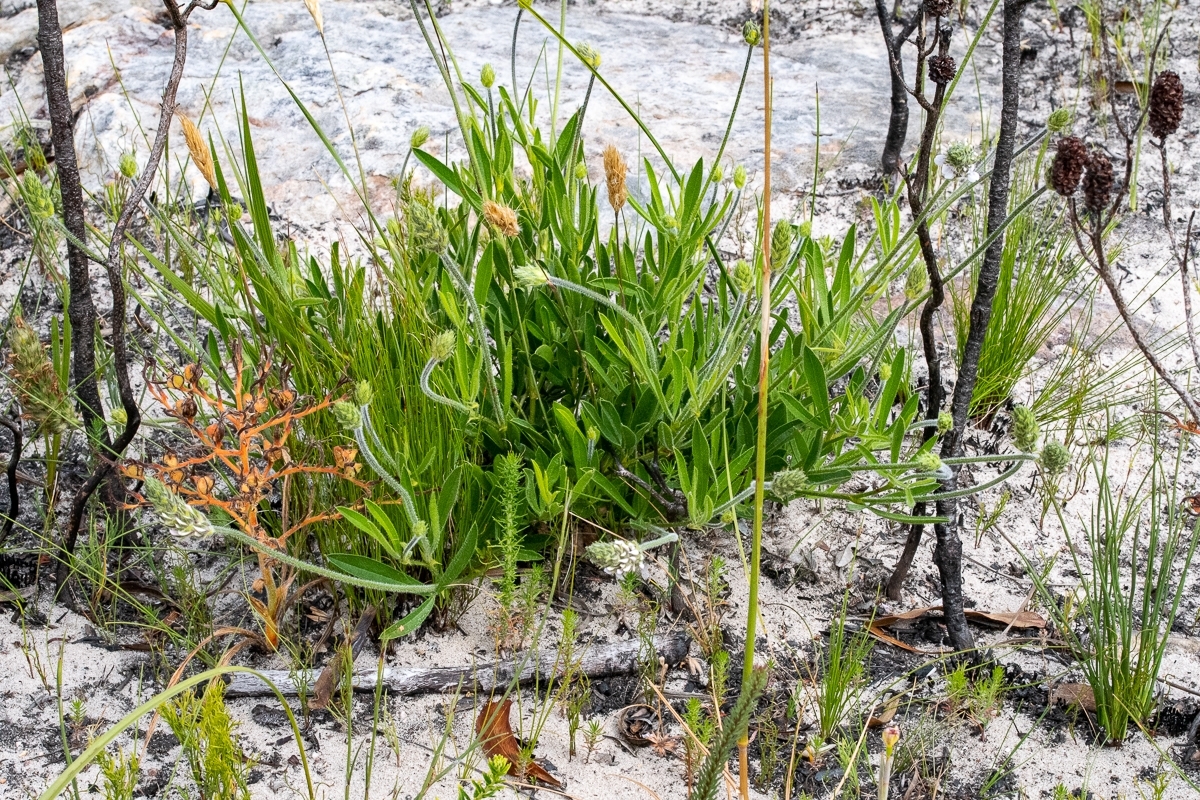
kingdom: Plantae
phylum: Tracheophyta
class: Magnoliopsida
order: Fabales
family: Fabaceae
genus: Psoralea
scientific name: Psoralea zeyheri
